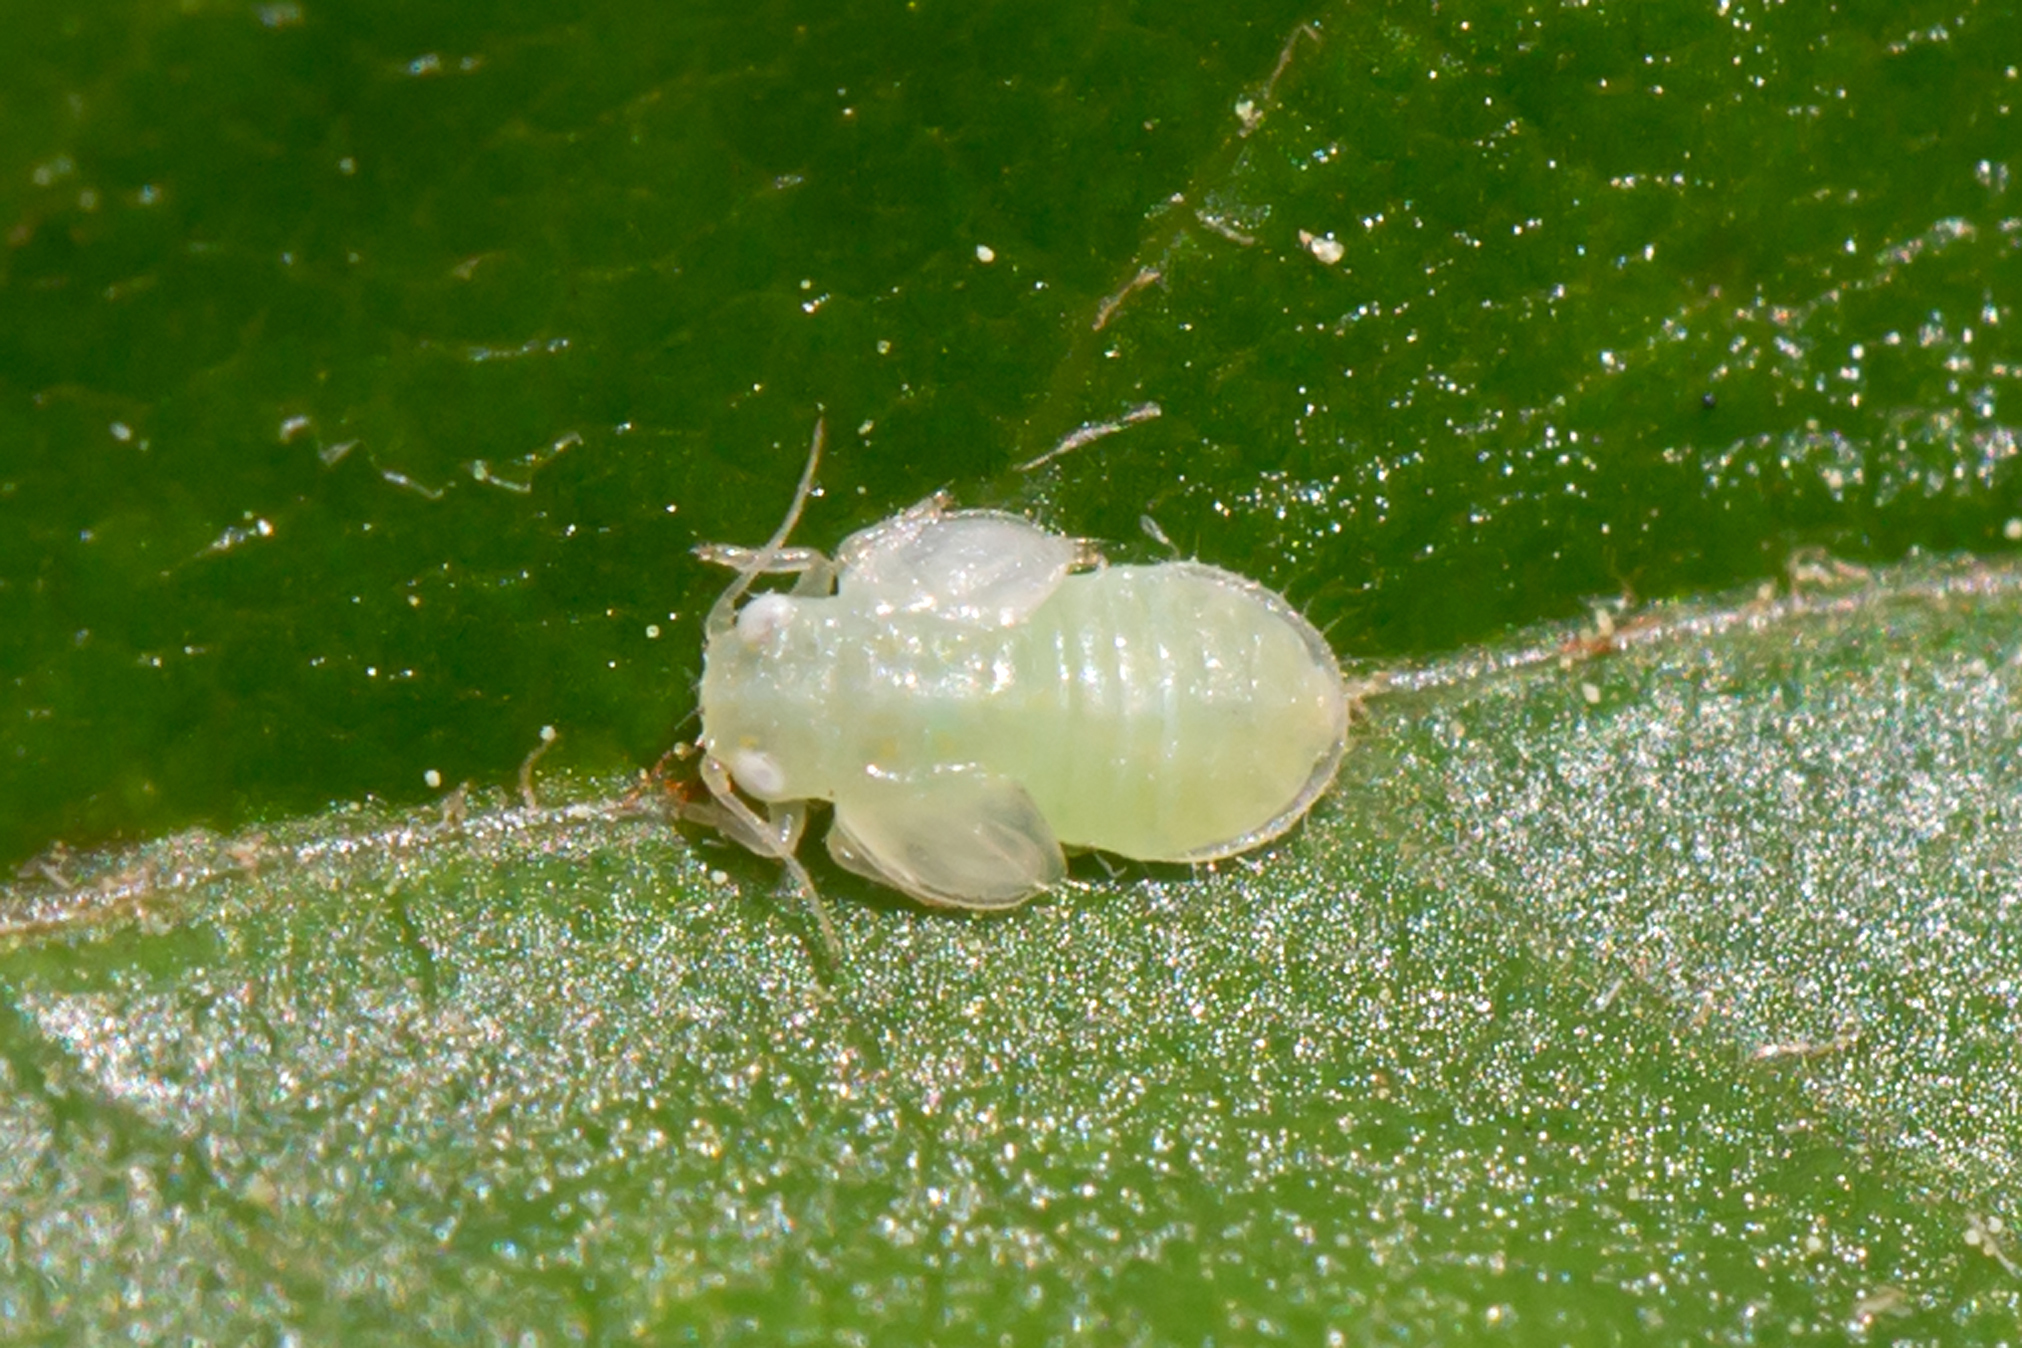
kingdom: Animalia
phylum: Arthropoda
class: Insecta
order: Hemiptera
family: Psyllidae
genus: Cacopsylla
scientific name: Cacopsylla annulata
